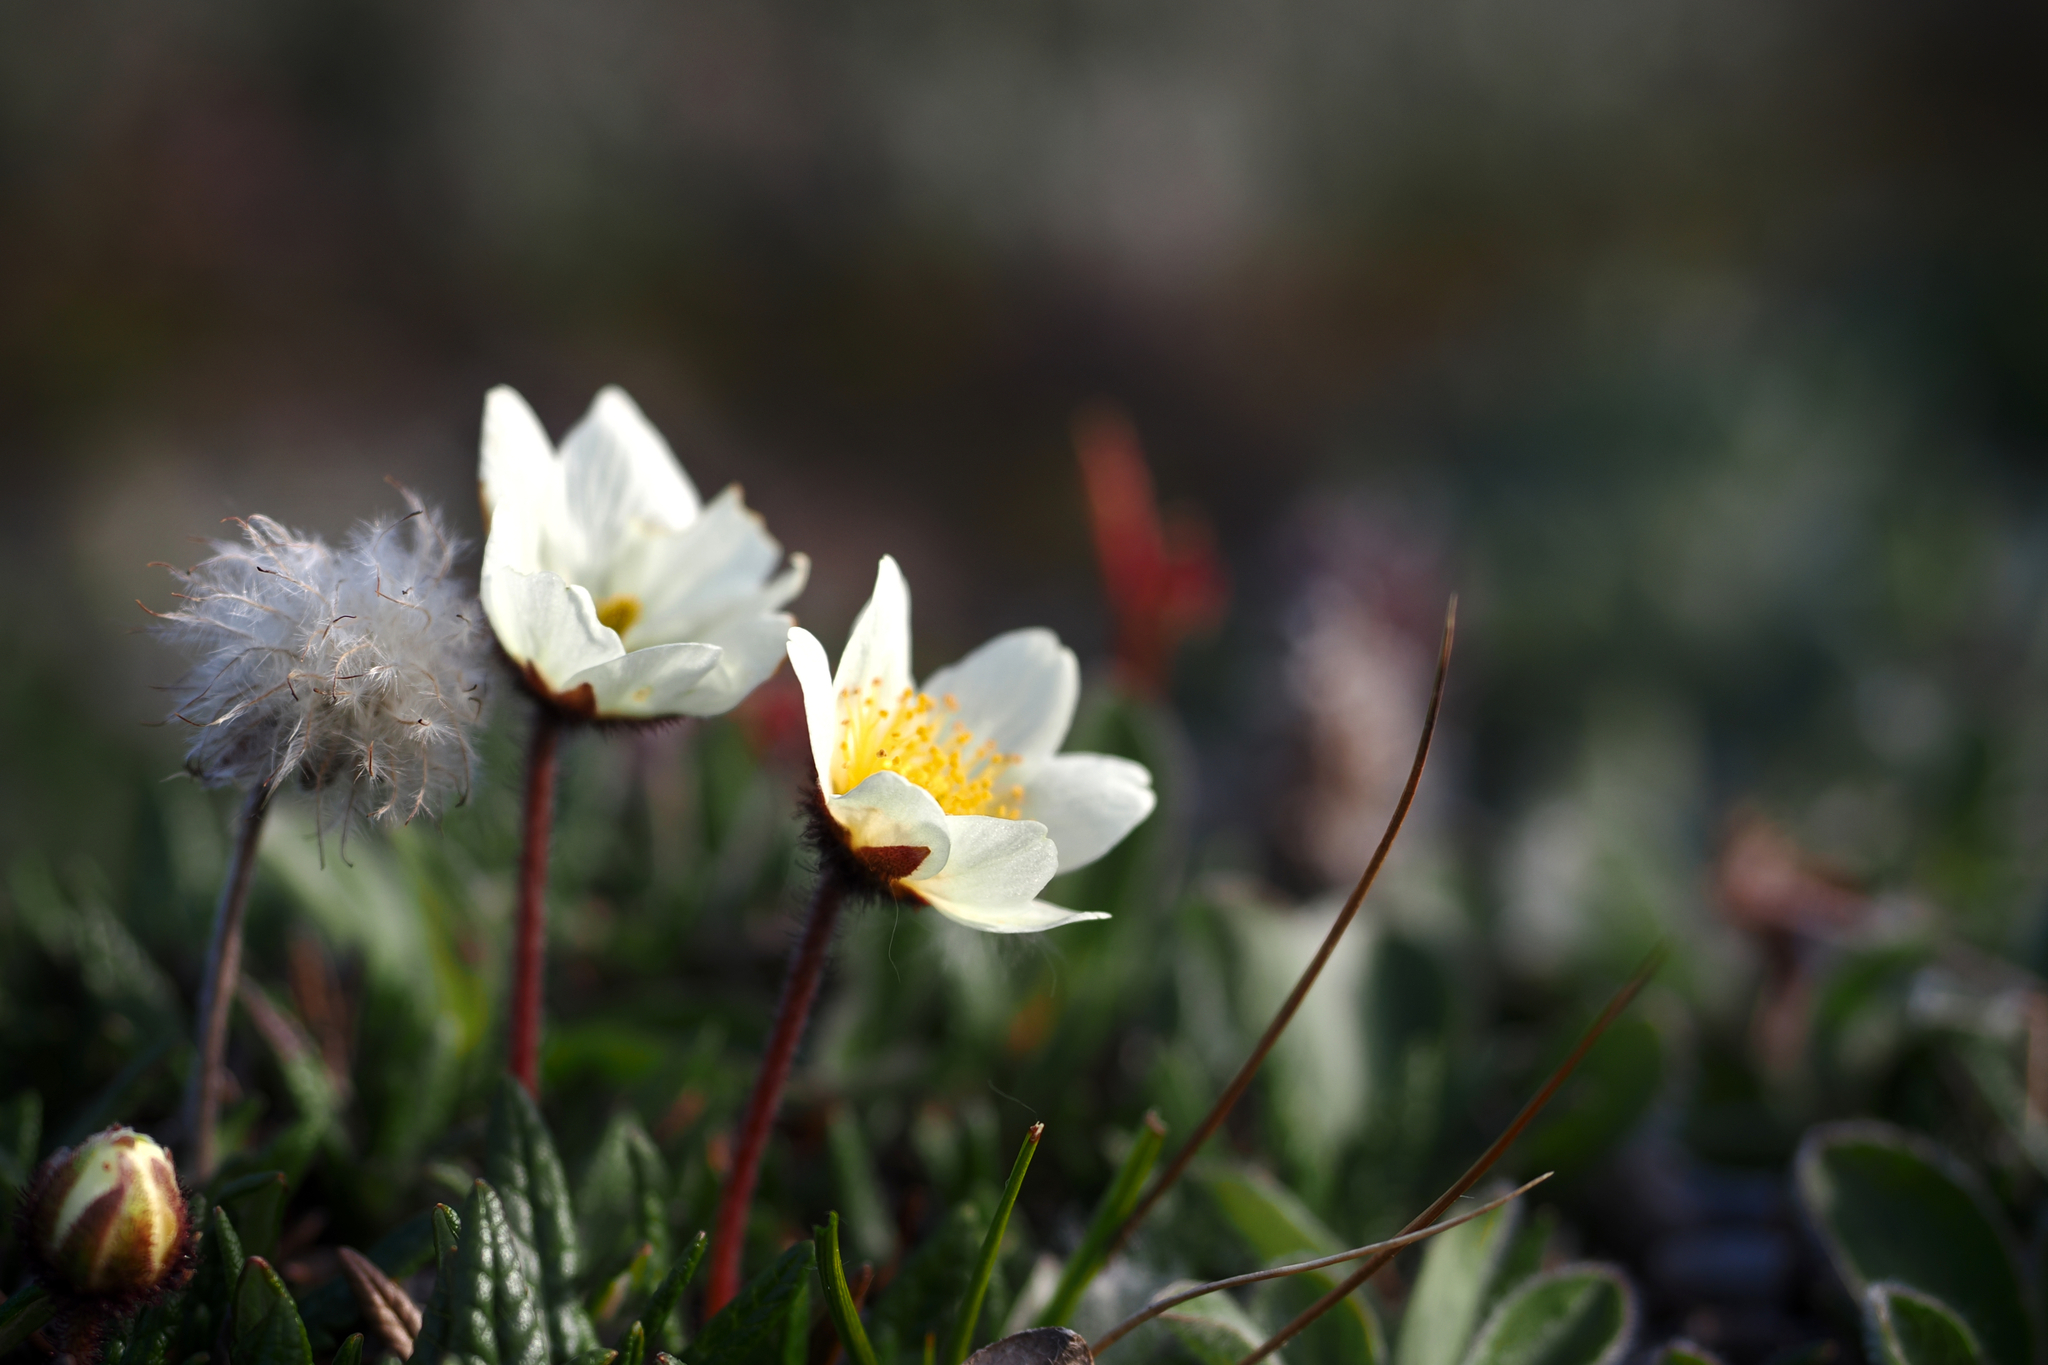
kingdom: Plantae
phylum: Tracheophyta
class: Magnoliopsida
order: Rosales
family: Rosaceae
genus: Dryas
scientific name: Dryas integrifolia
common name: Entire-leaved mountain avens
